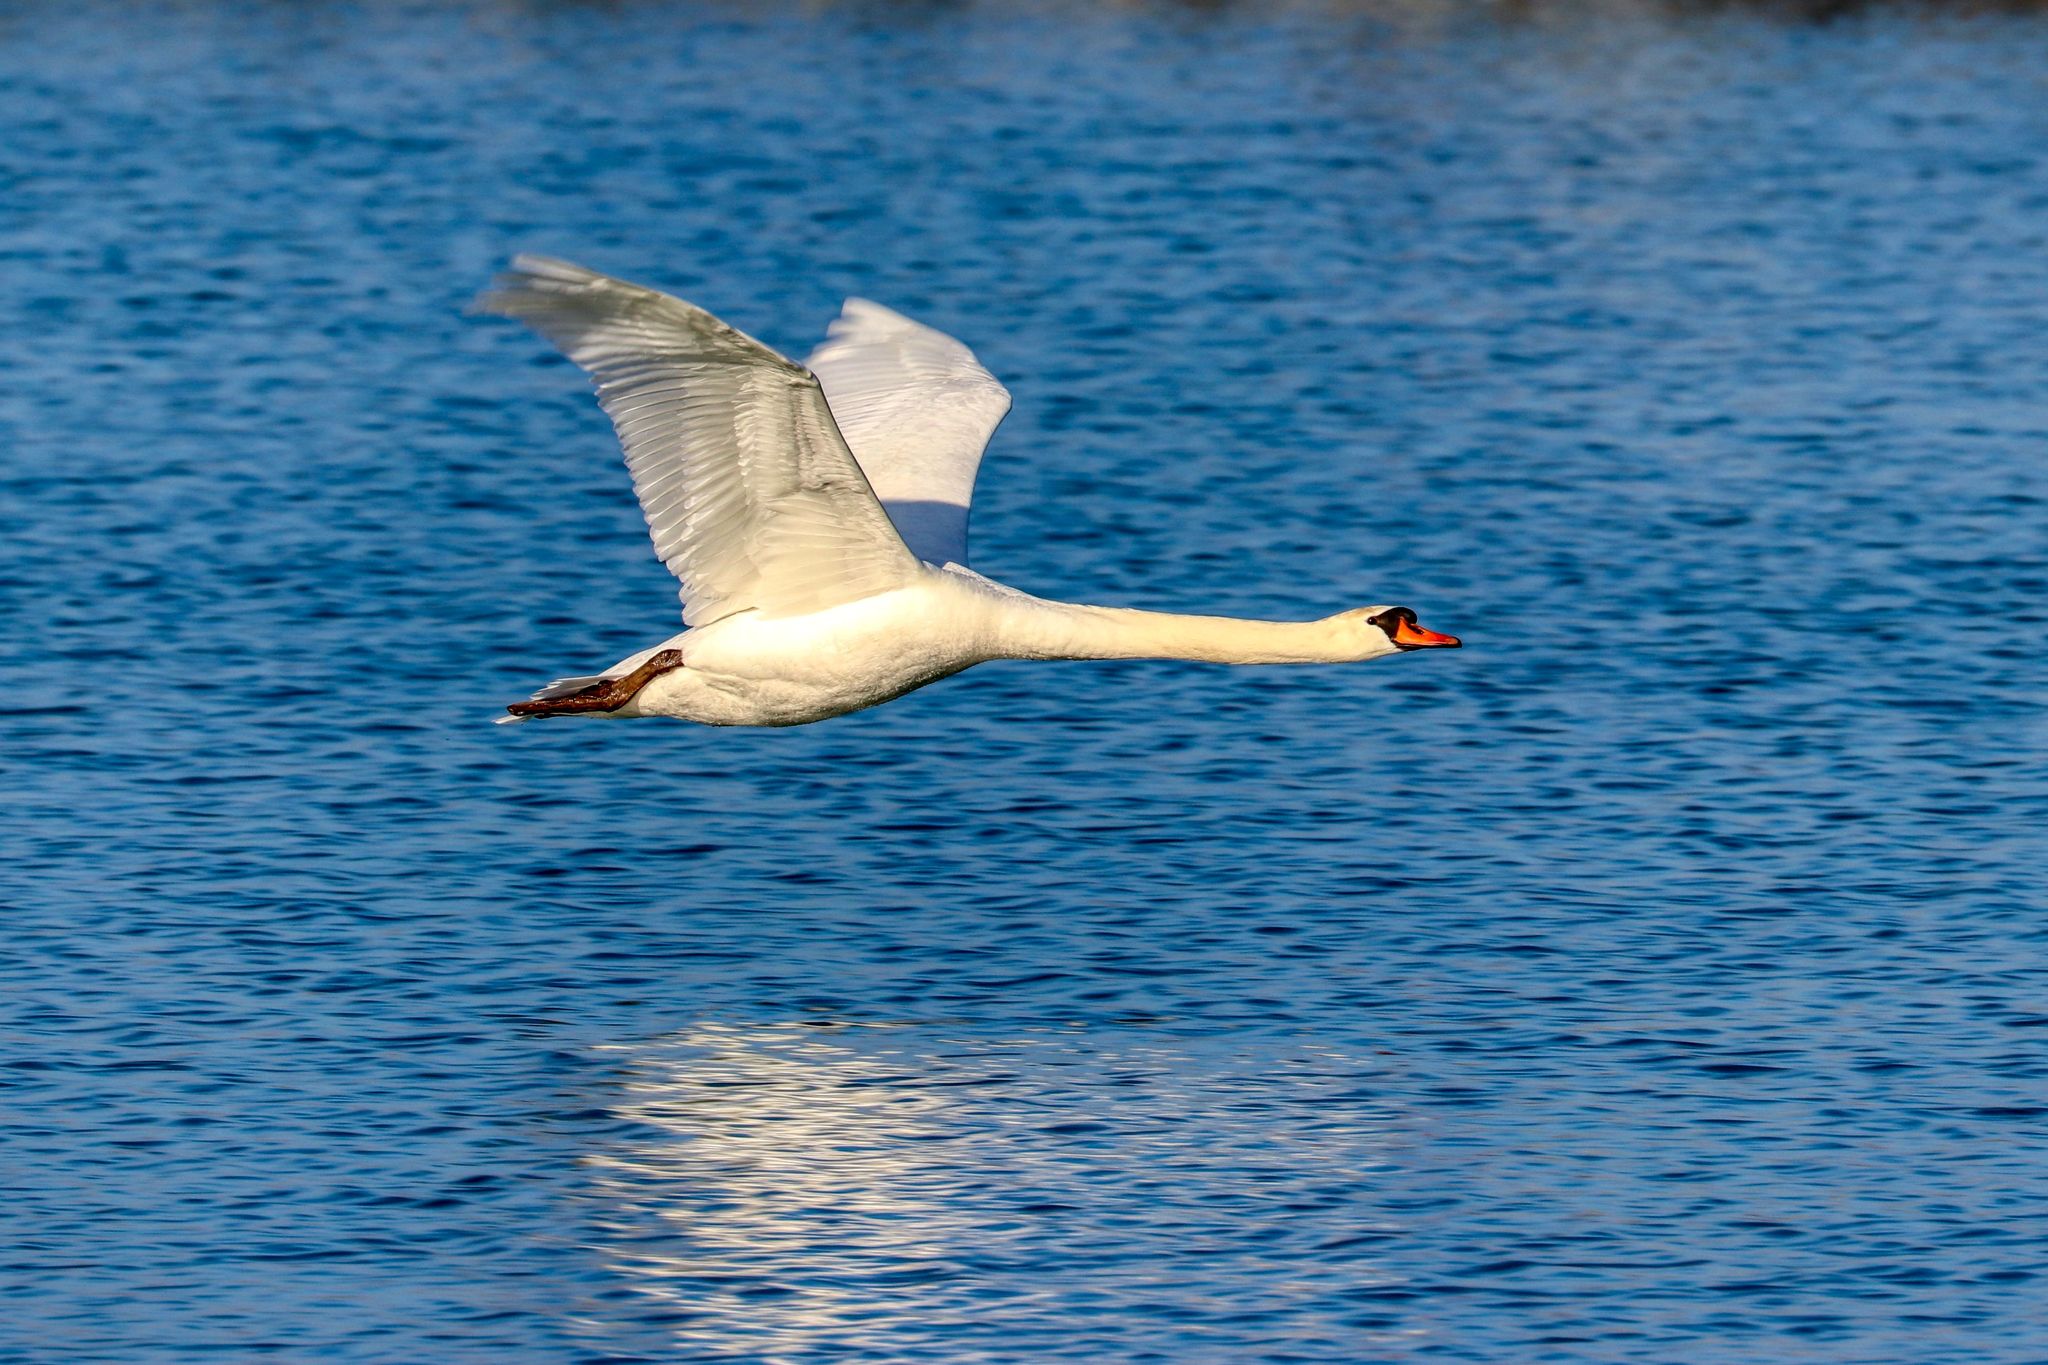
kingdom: Animalia
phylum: Chordata
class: Aves
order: Anseriformes
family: Anatidae
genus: Cygnus
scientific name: Cygnus olor
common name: Mute swan
